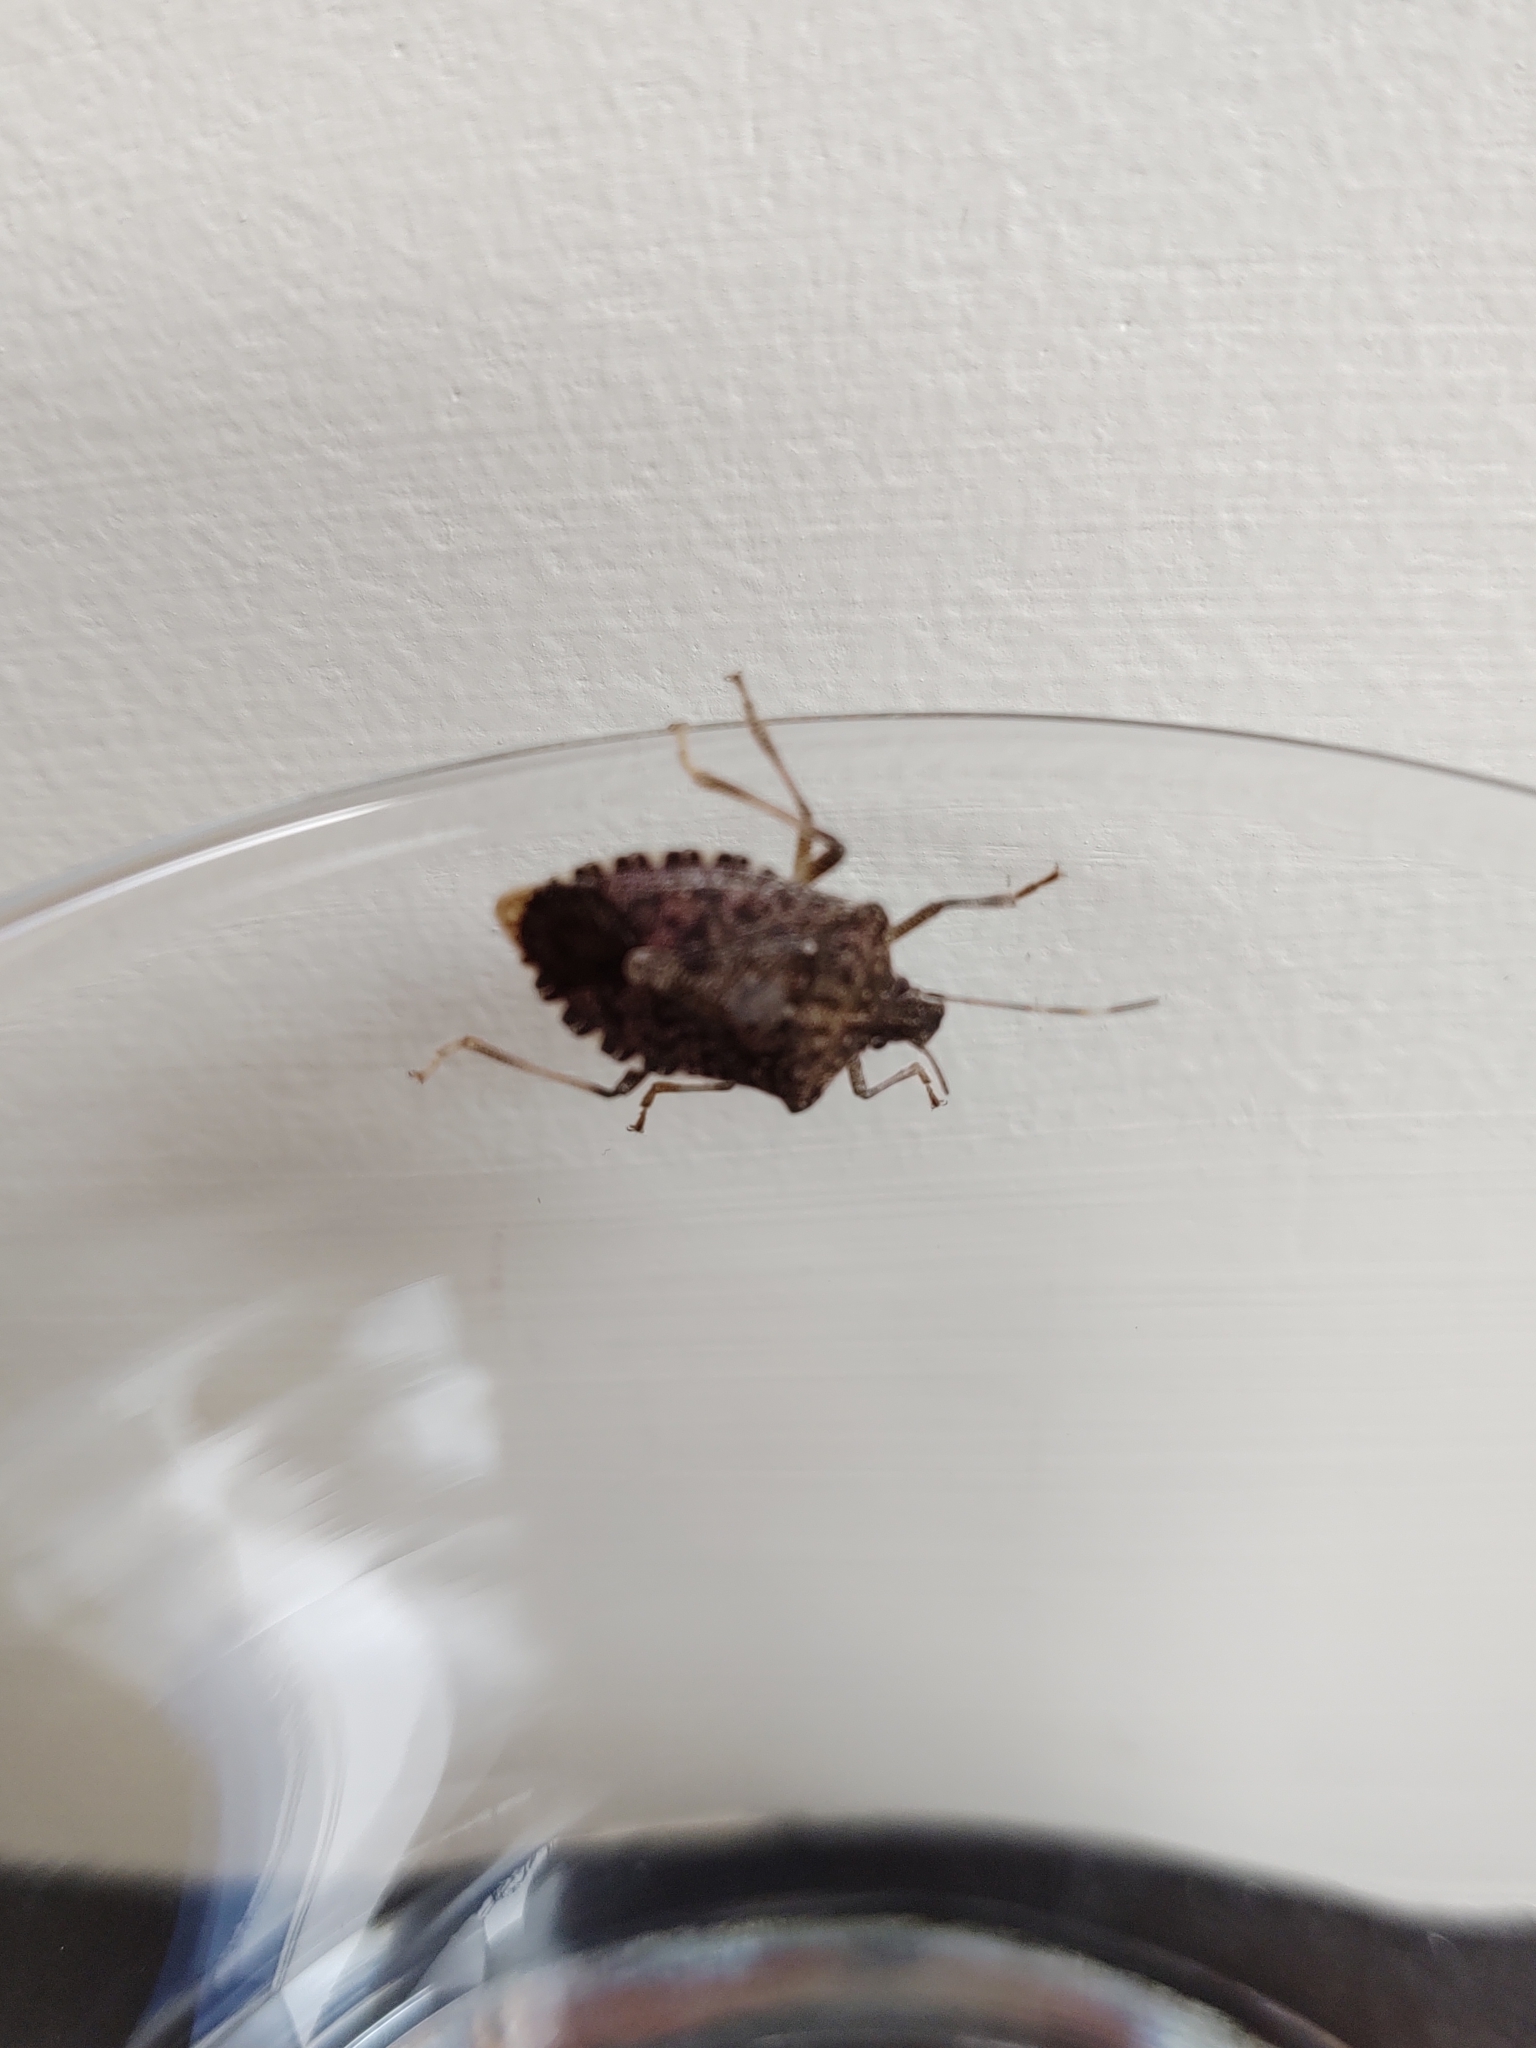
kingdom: Animalia
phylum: Arthropoda
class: Insecta
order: Hemiptera
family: Pentatomidae
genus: Halyomorpha
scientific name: Halyomorpha halys
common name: Brown marmorated stink bug
